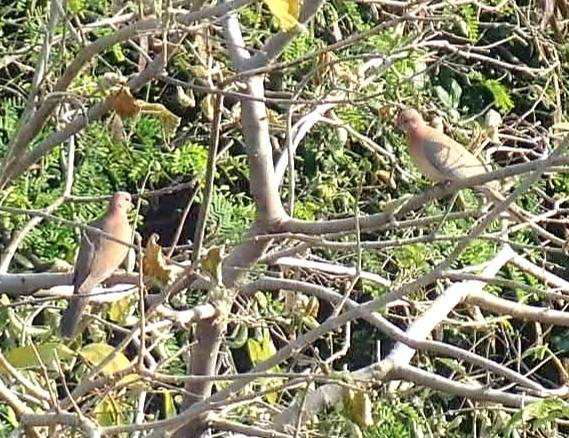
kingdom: Animalia
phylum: Chordata
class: Aves
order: Columbiformes
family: Columbidae
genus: Spilopelia
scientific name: Spilopelia senegalensis
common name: Laughing dove
